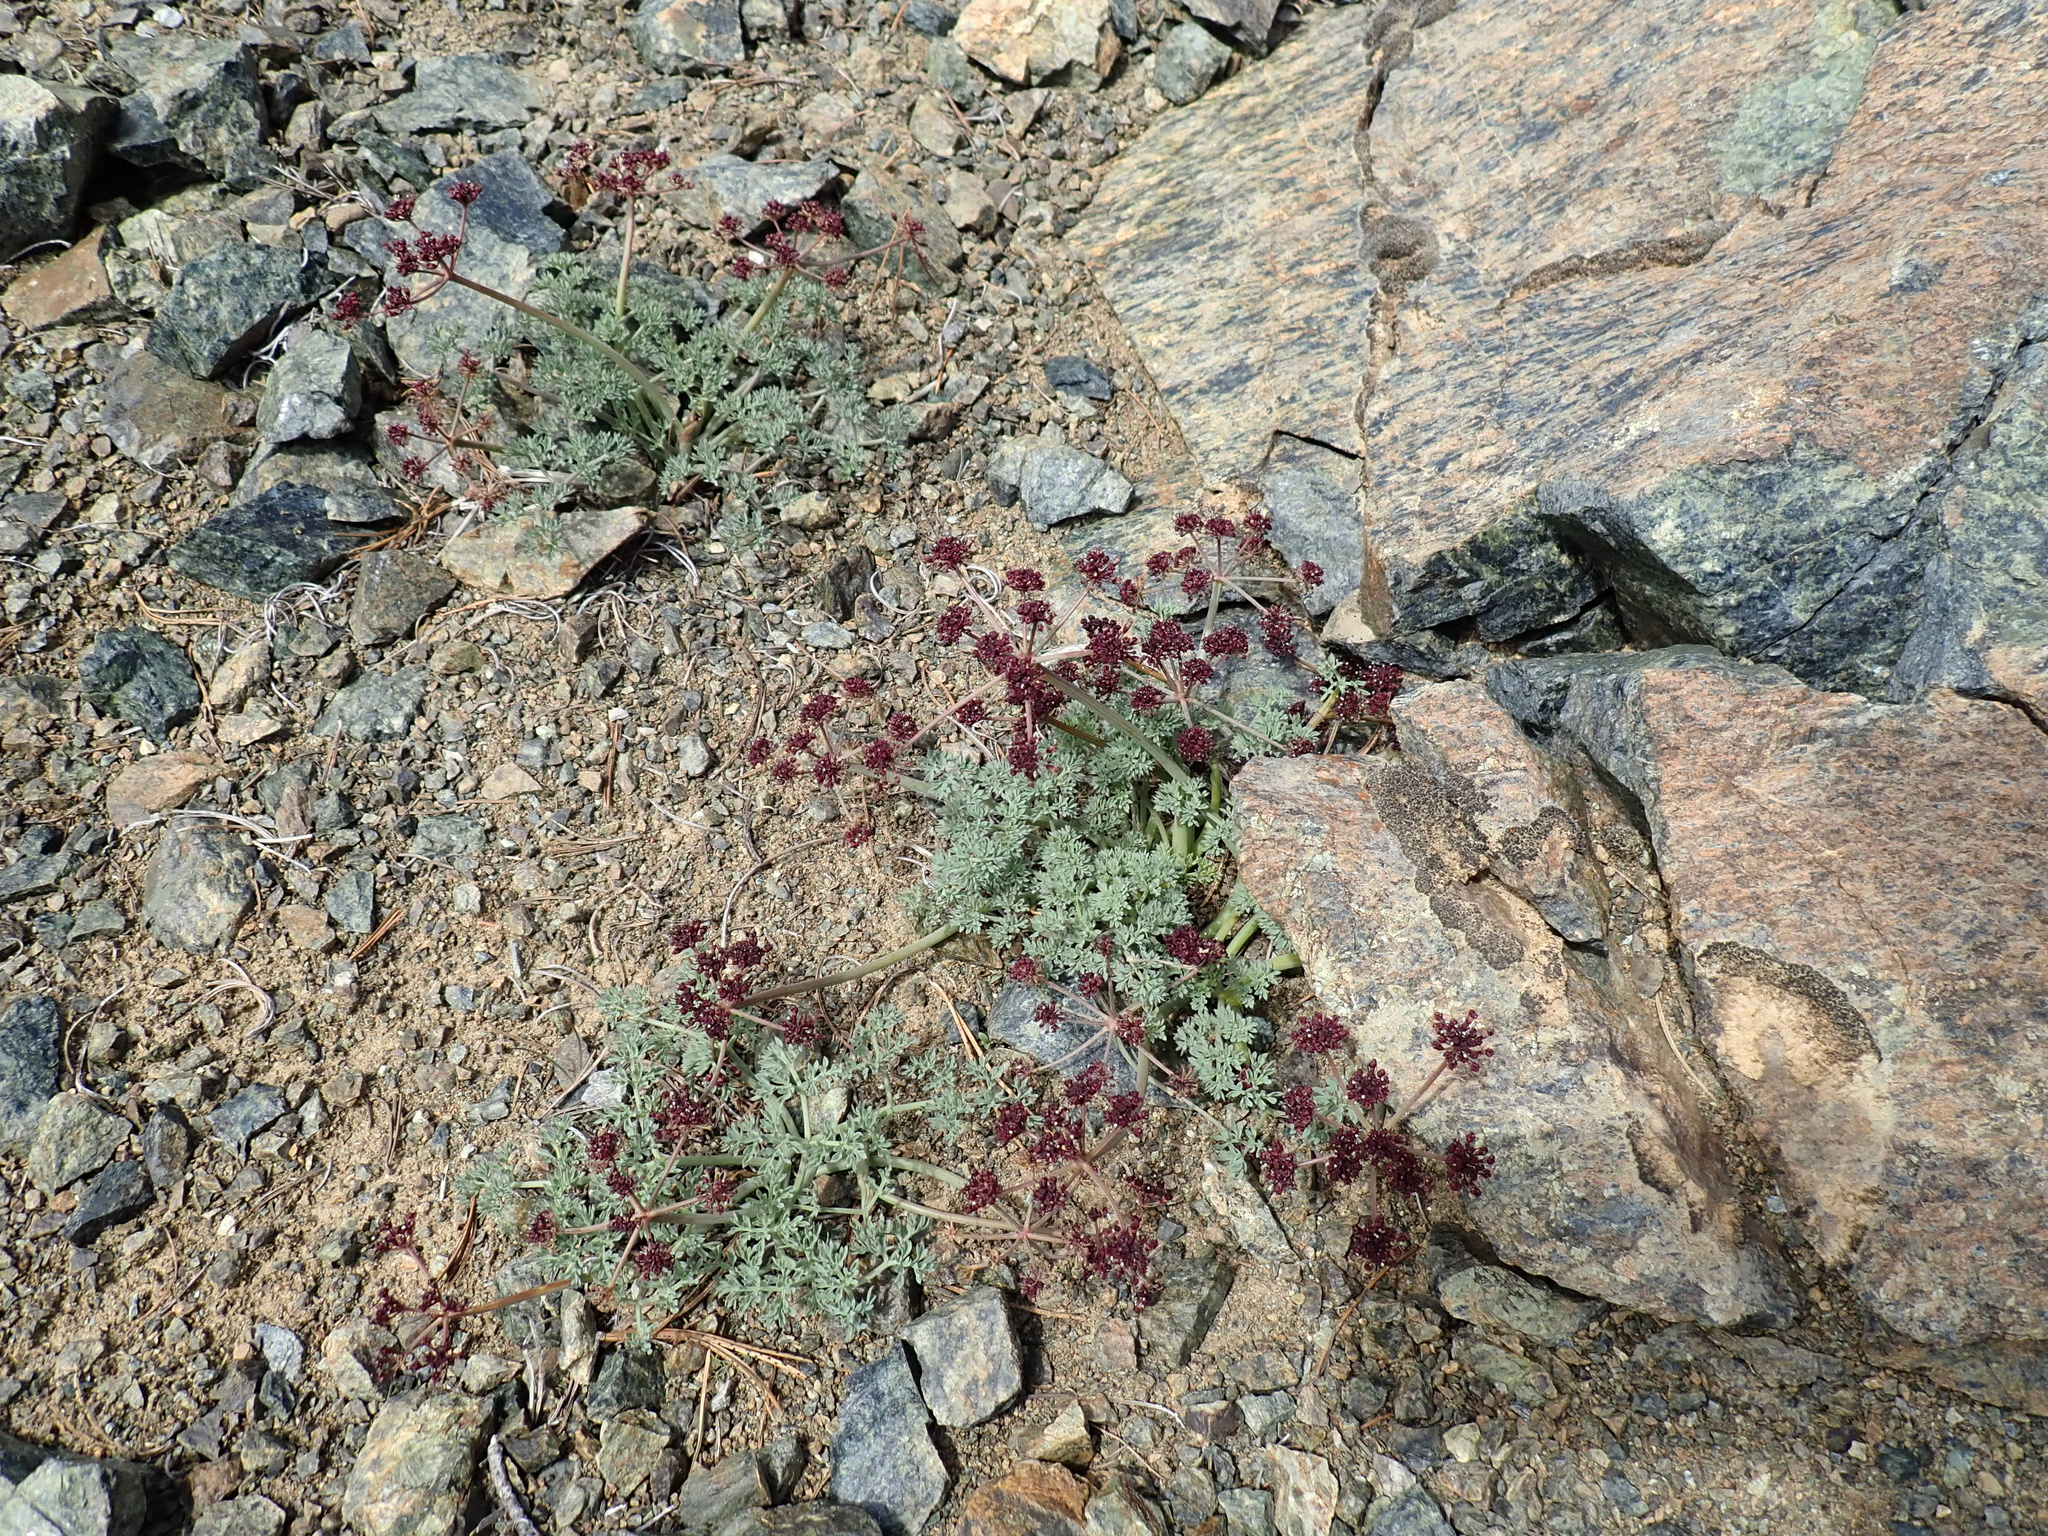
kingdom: Plantae
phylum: Tracheophyta
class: Magnoliopsida
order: Apiales
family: Apiaceae
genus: Lomatium
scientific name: Lomatium cuspidatum
